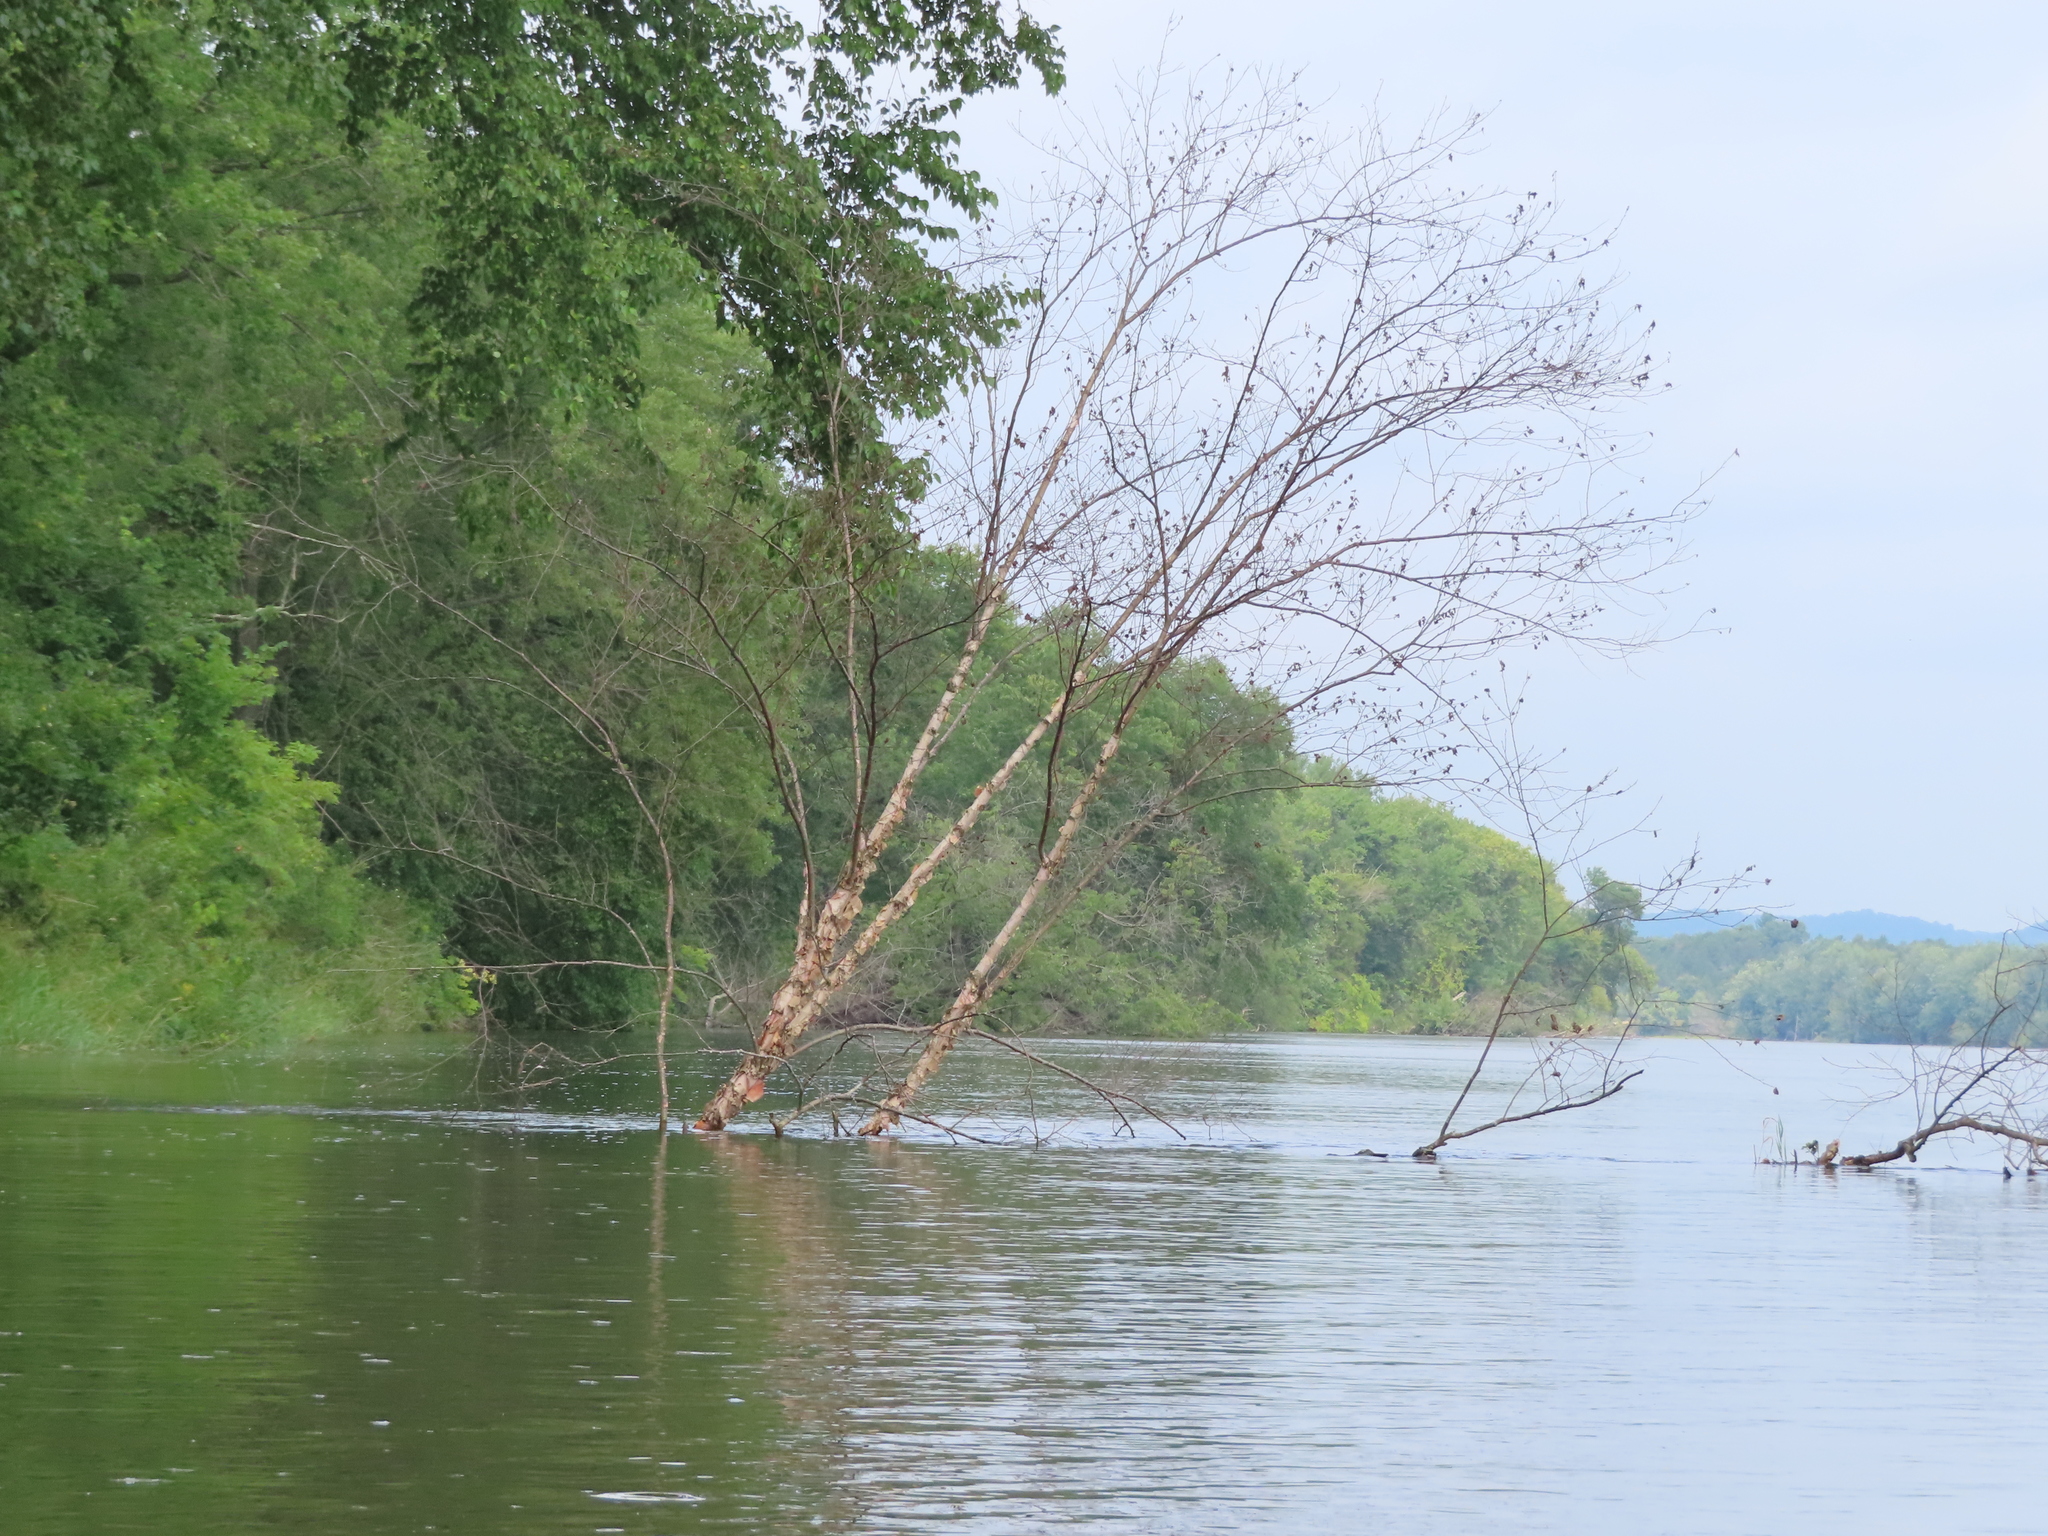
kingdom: Plantae
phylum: Tracheophyta
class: Magnoliopsida
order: Fagales
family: Betulaceae
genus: Betula
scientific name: Betula nigra
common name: Black birch
